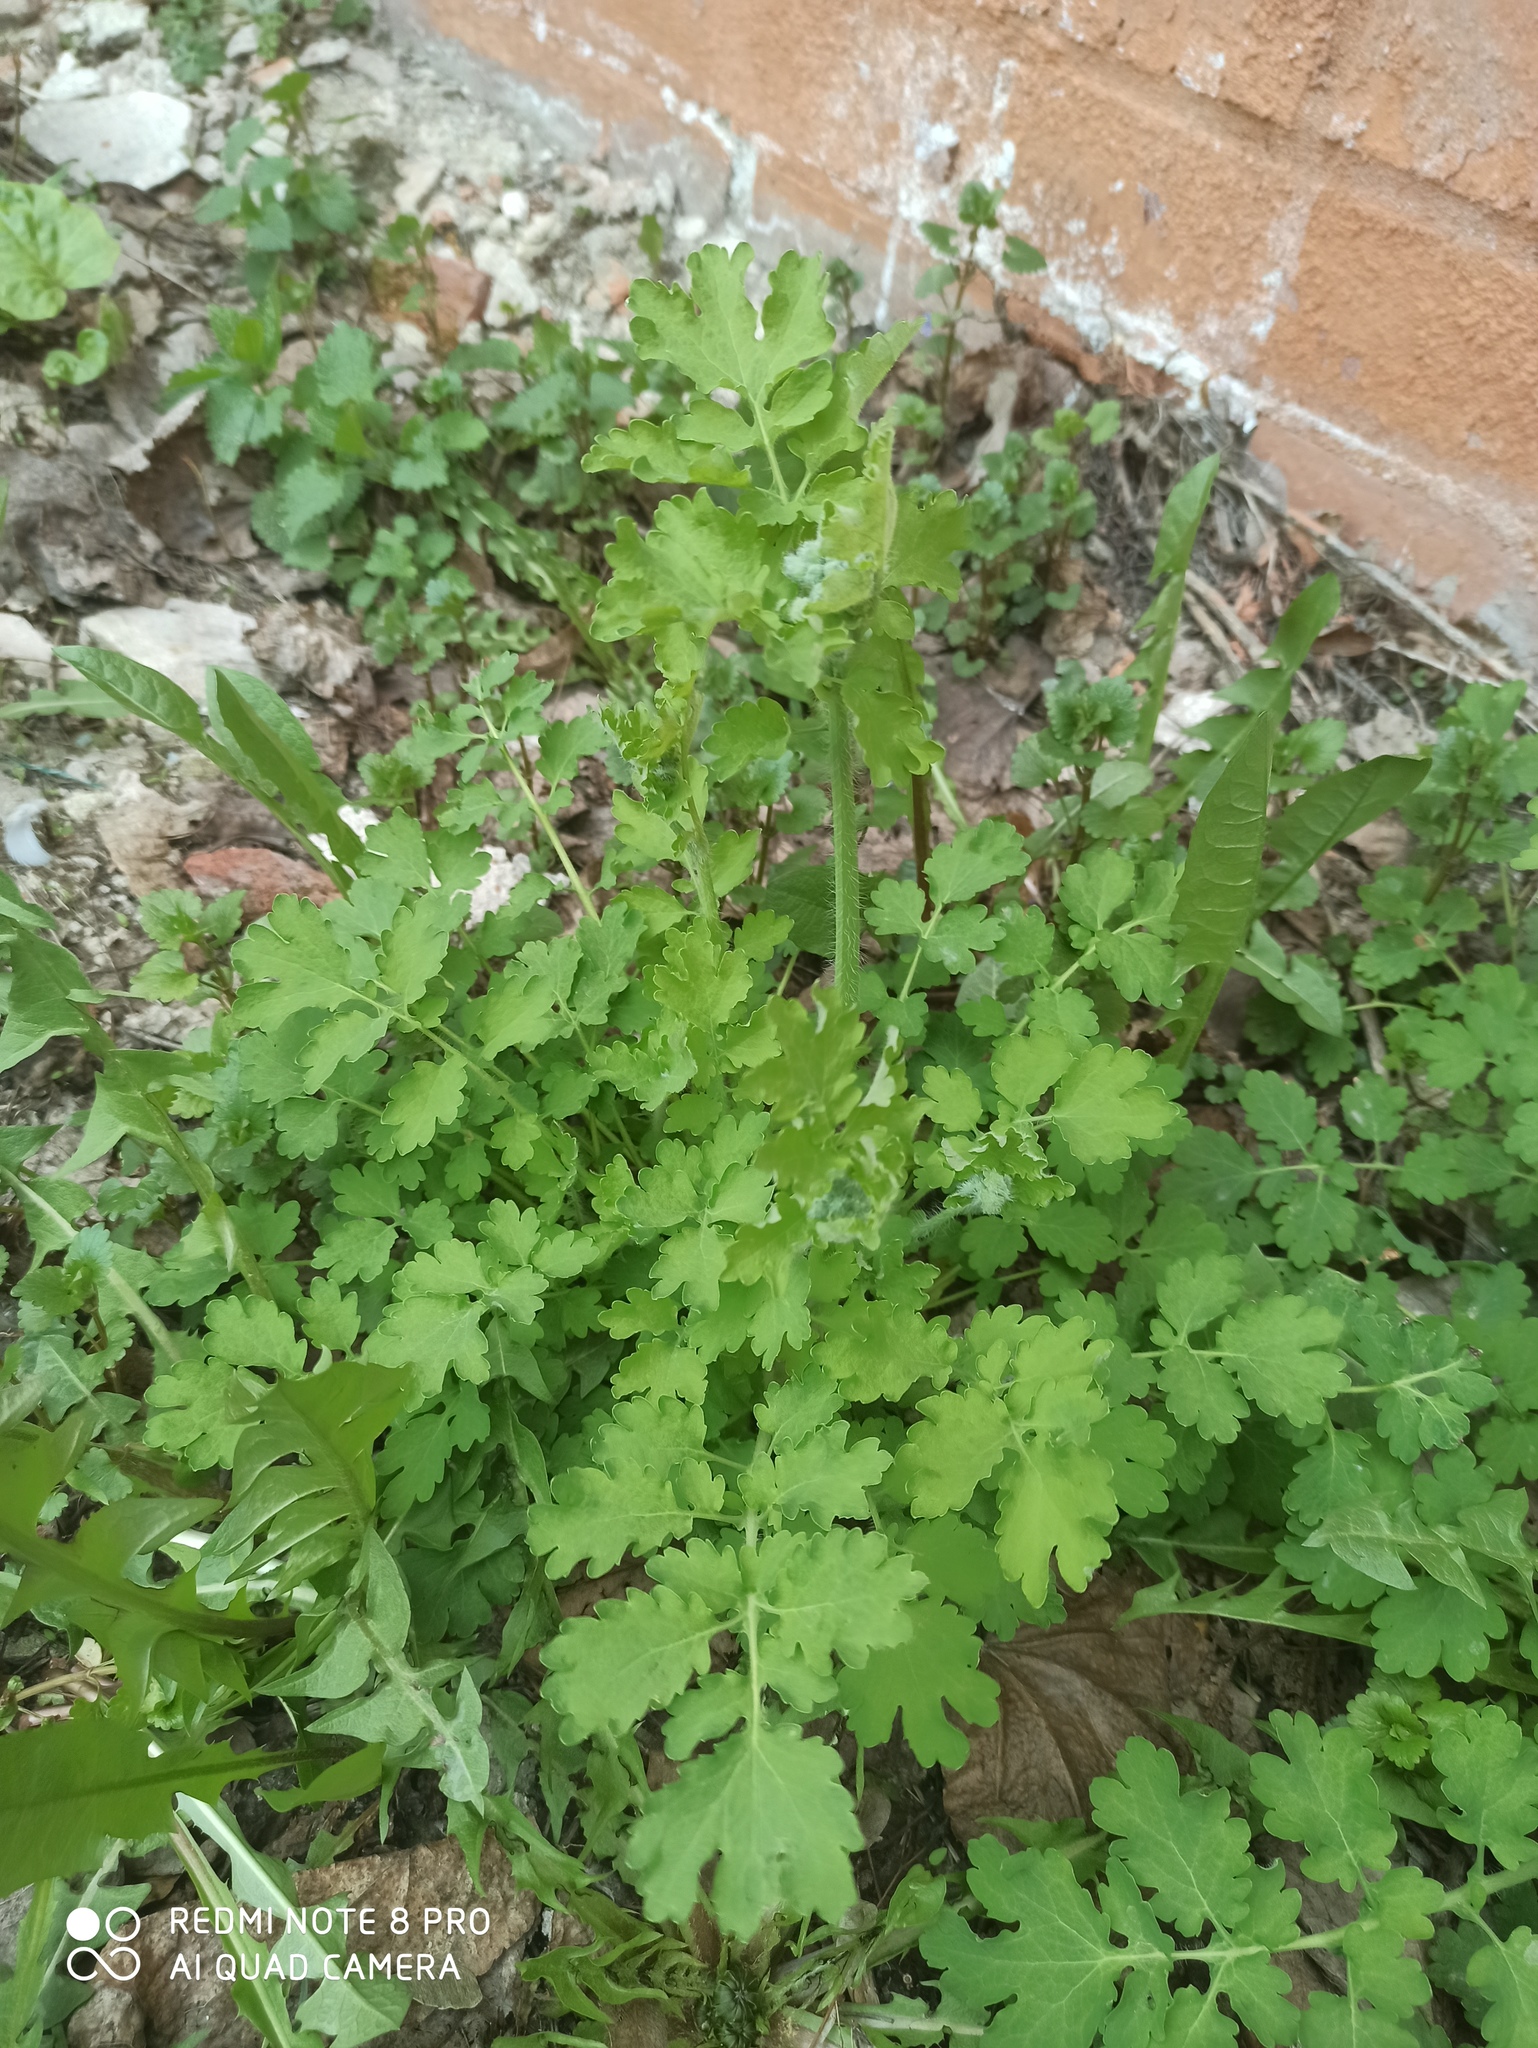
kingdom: Plantae
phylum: Tracheophyta
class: Magnoliopsida
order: Ranunculales
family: Papaveraceae
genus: Chelidonium
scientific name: Chelidonium majus
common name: Greater celandine
